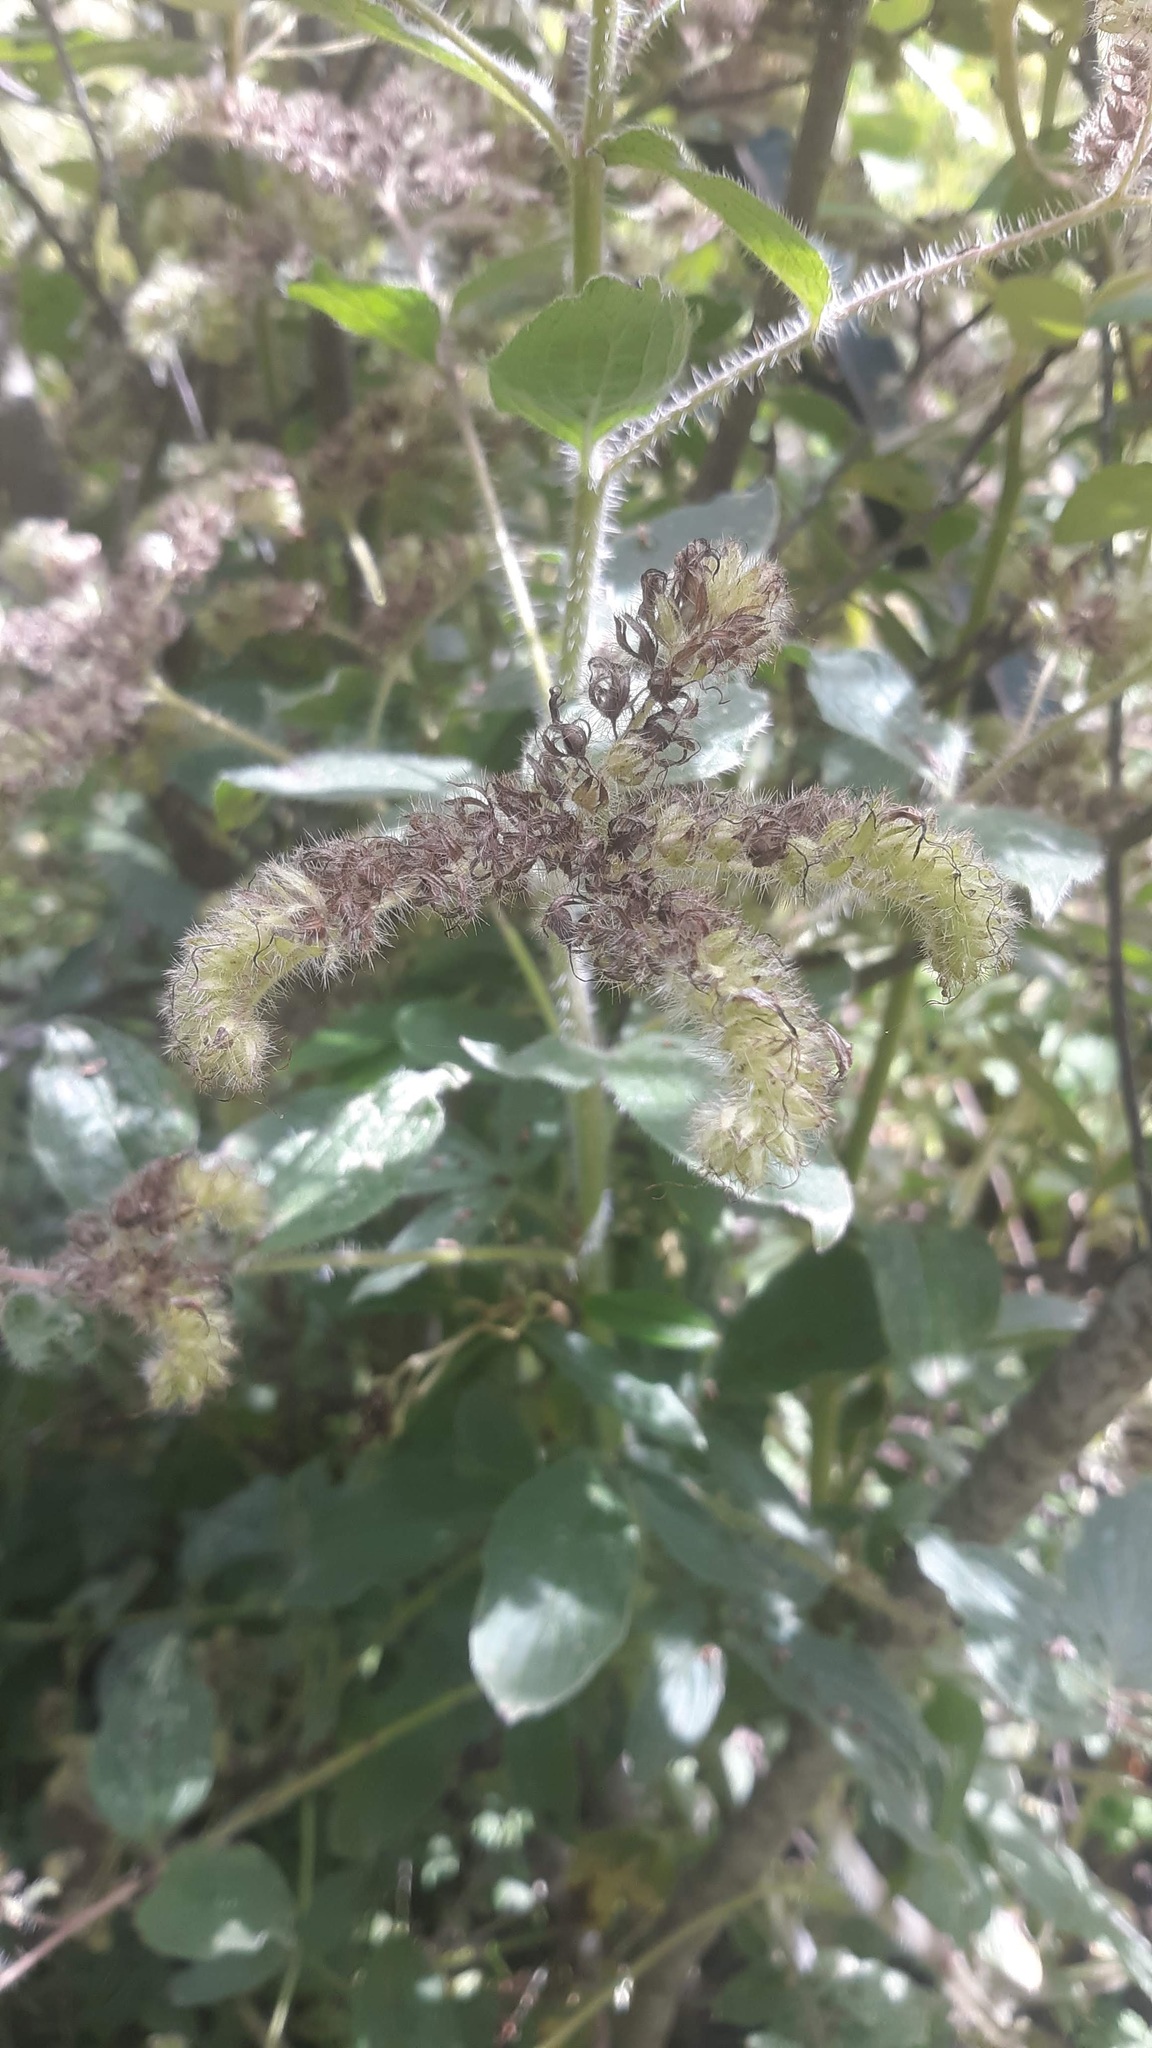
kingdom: Plantae
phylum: Tracheophyta
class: Magnoliopsida
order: Boraginales
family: Hydrophyllaceae
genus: Phacelia
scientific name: Phacelia nemoralis
